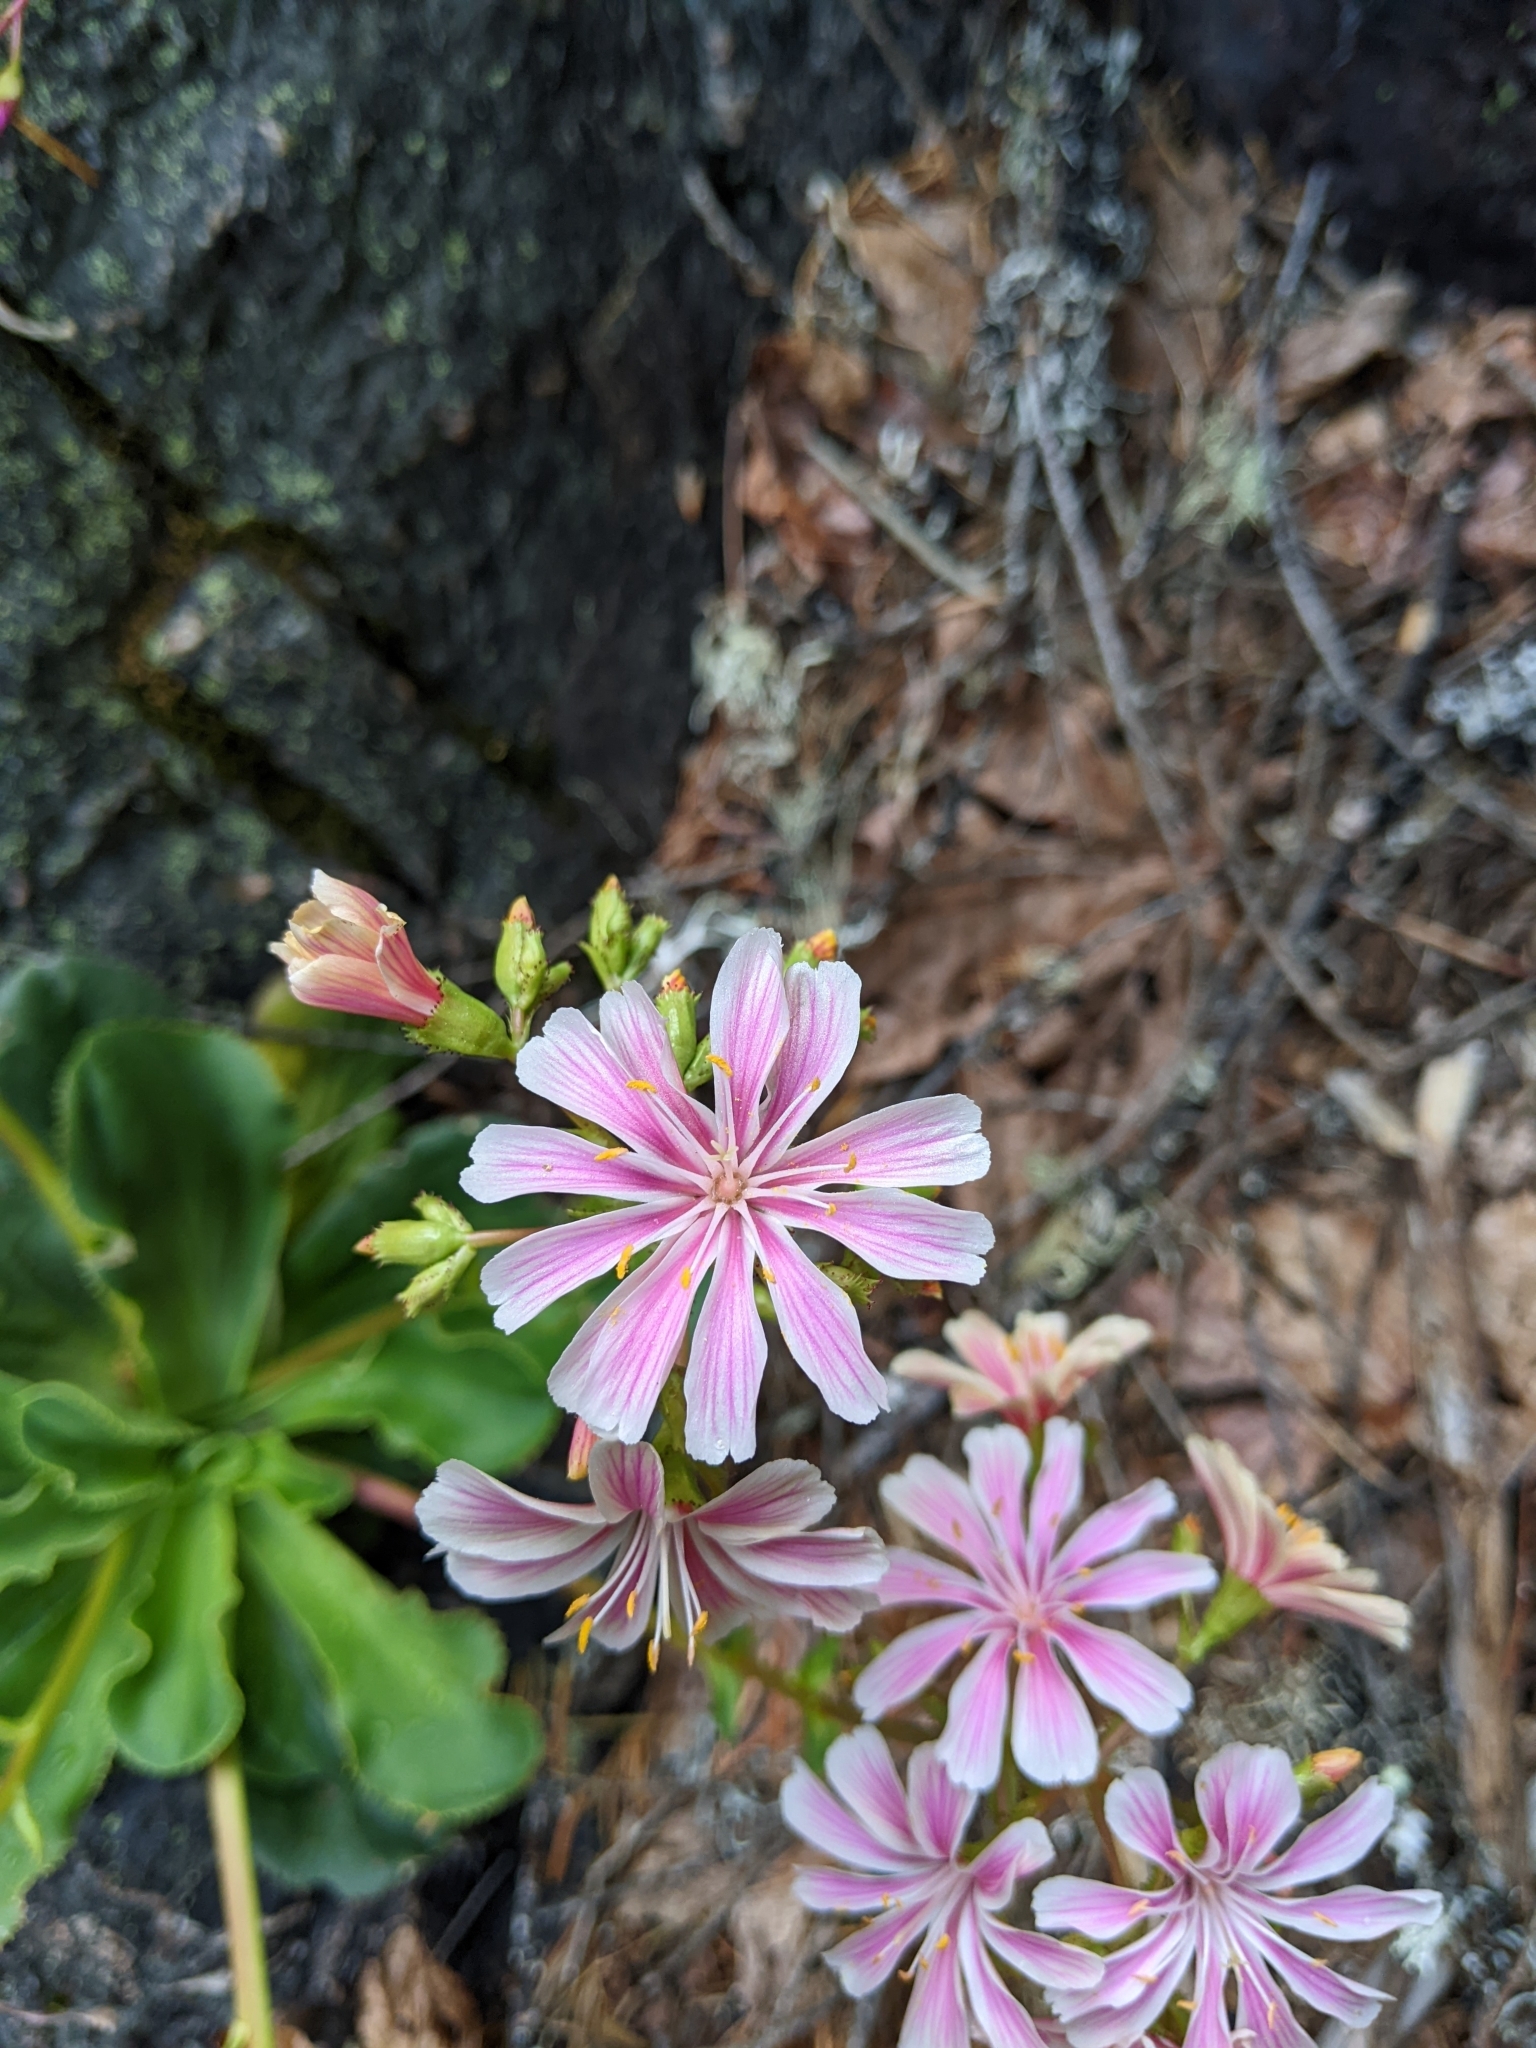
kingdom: Plantae
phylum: Tracheophyta
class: Magnoliopsida
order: Caryophyllales
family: Montiaceae
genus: Lewisia
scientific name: Lewisia cotyledon
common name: Siskiyou lewisia
